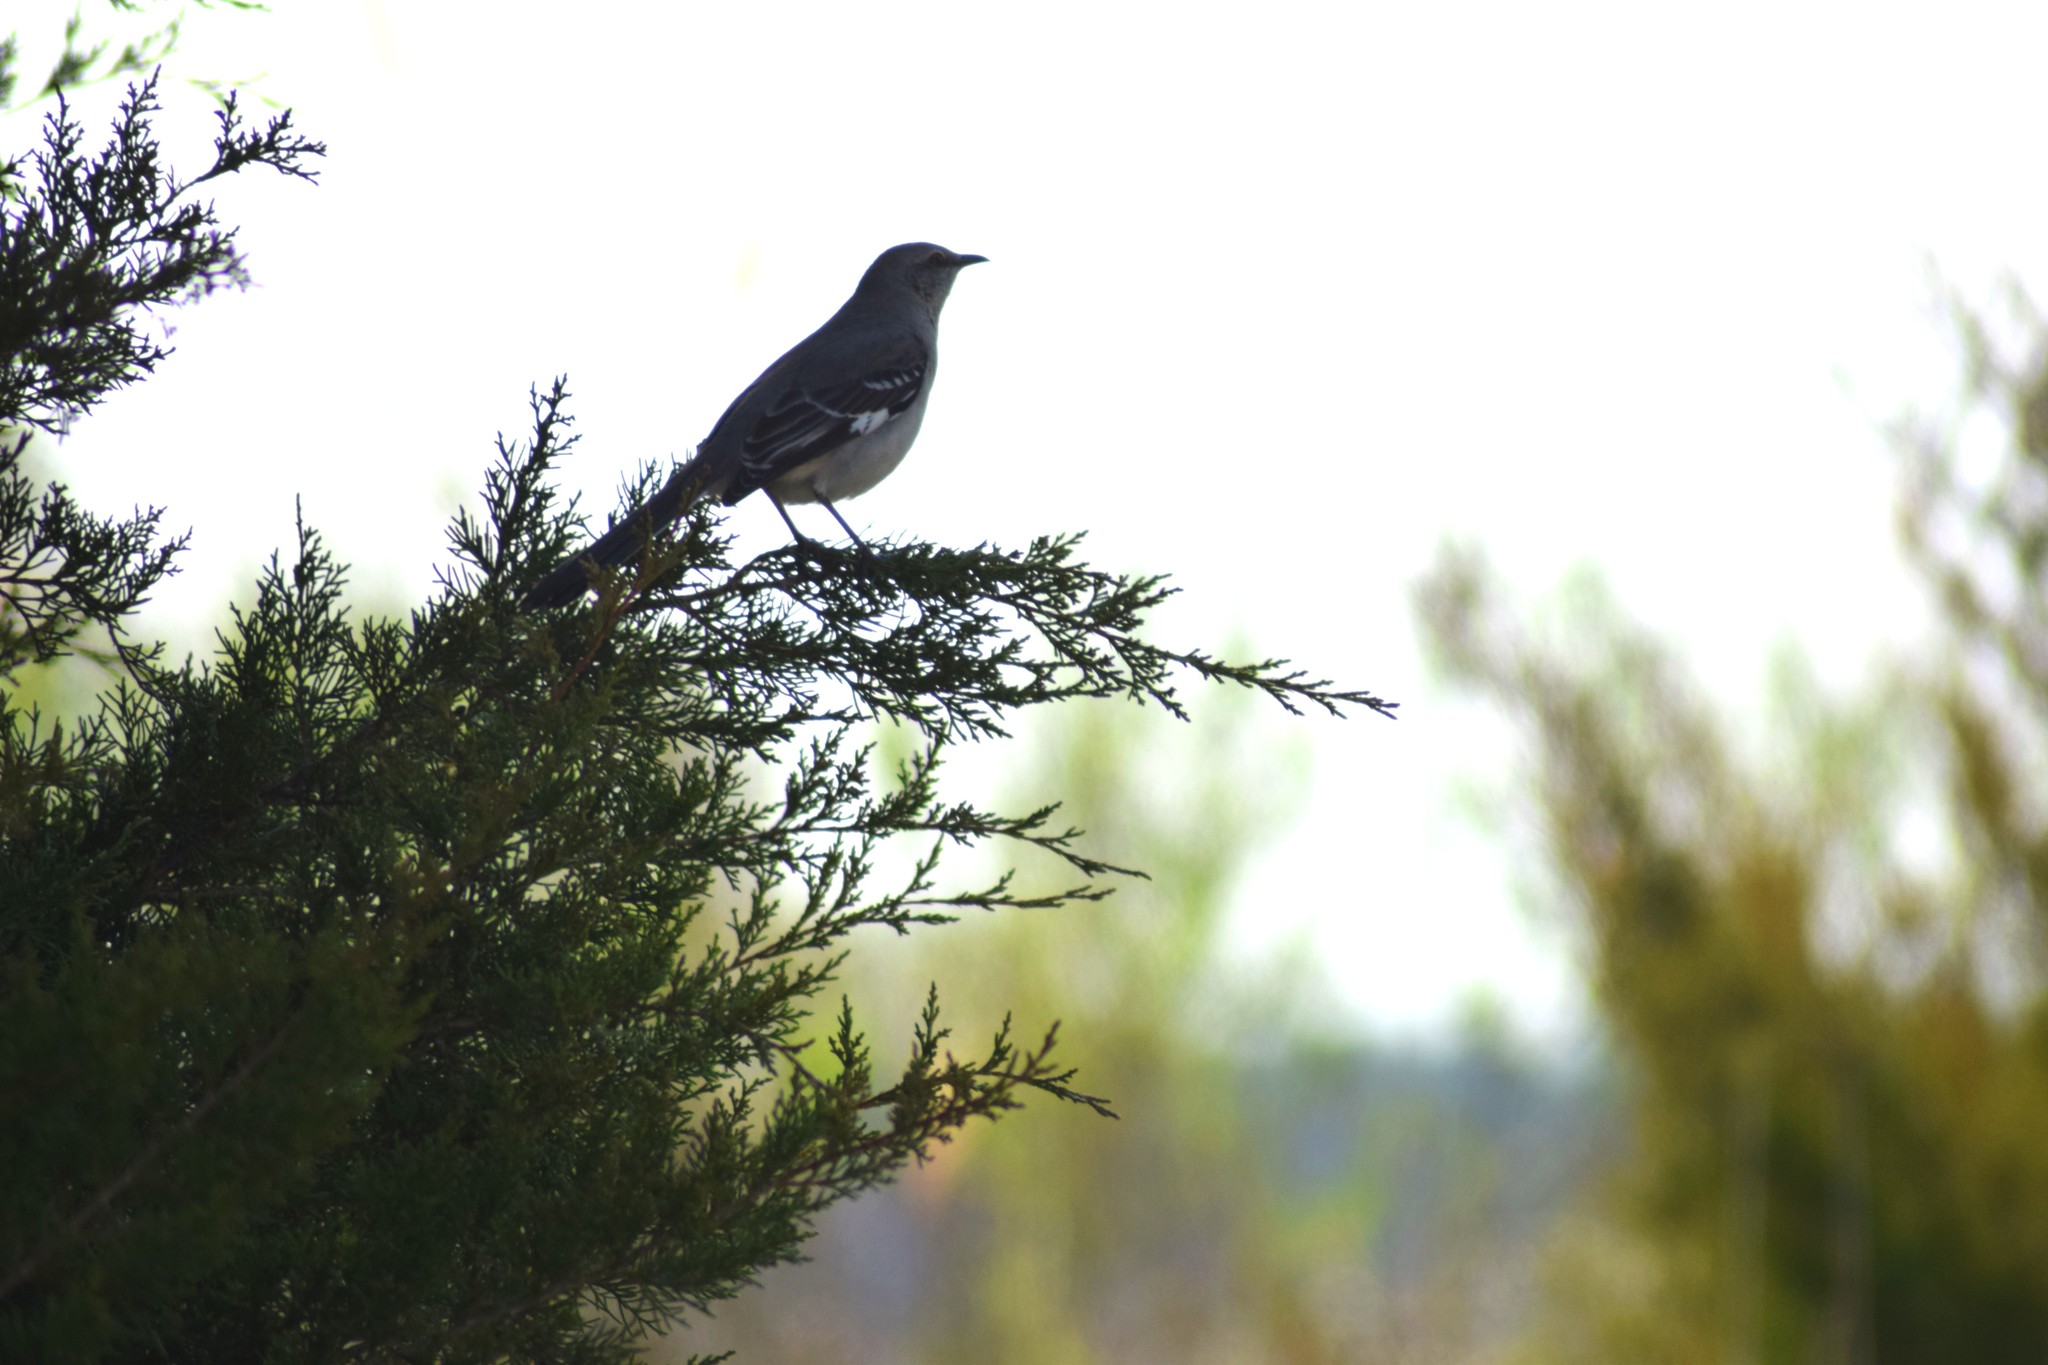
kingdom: Animalia
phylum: Chordata
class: Aves
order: Passeriformes
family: Mimidae
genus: Mimus
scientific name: Mimus polyglottos
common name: Northern mockingbird
